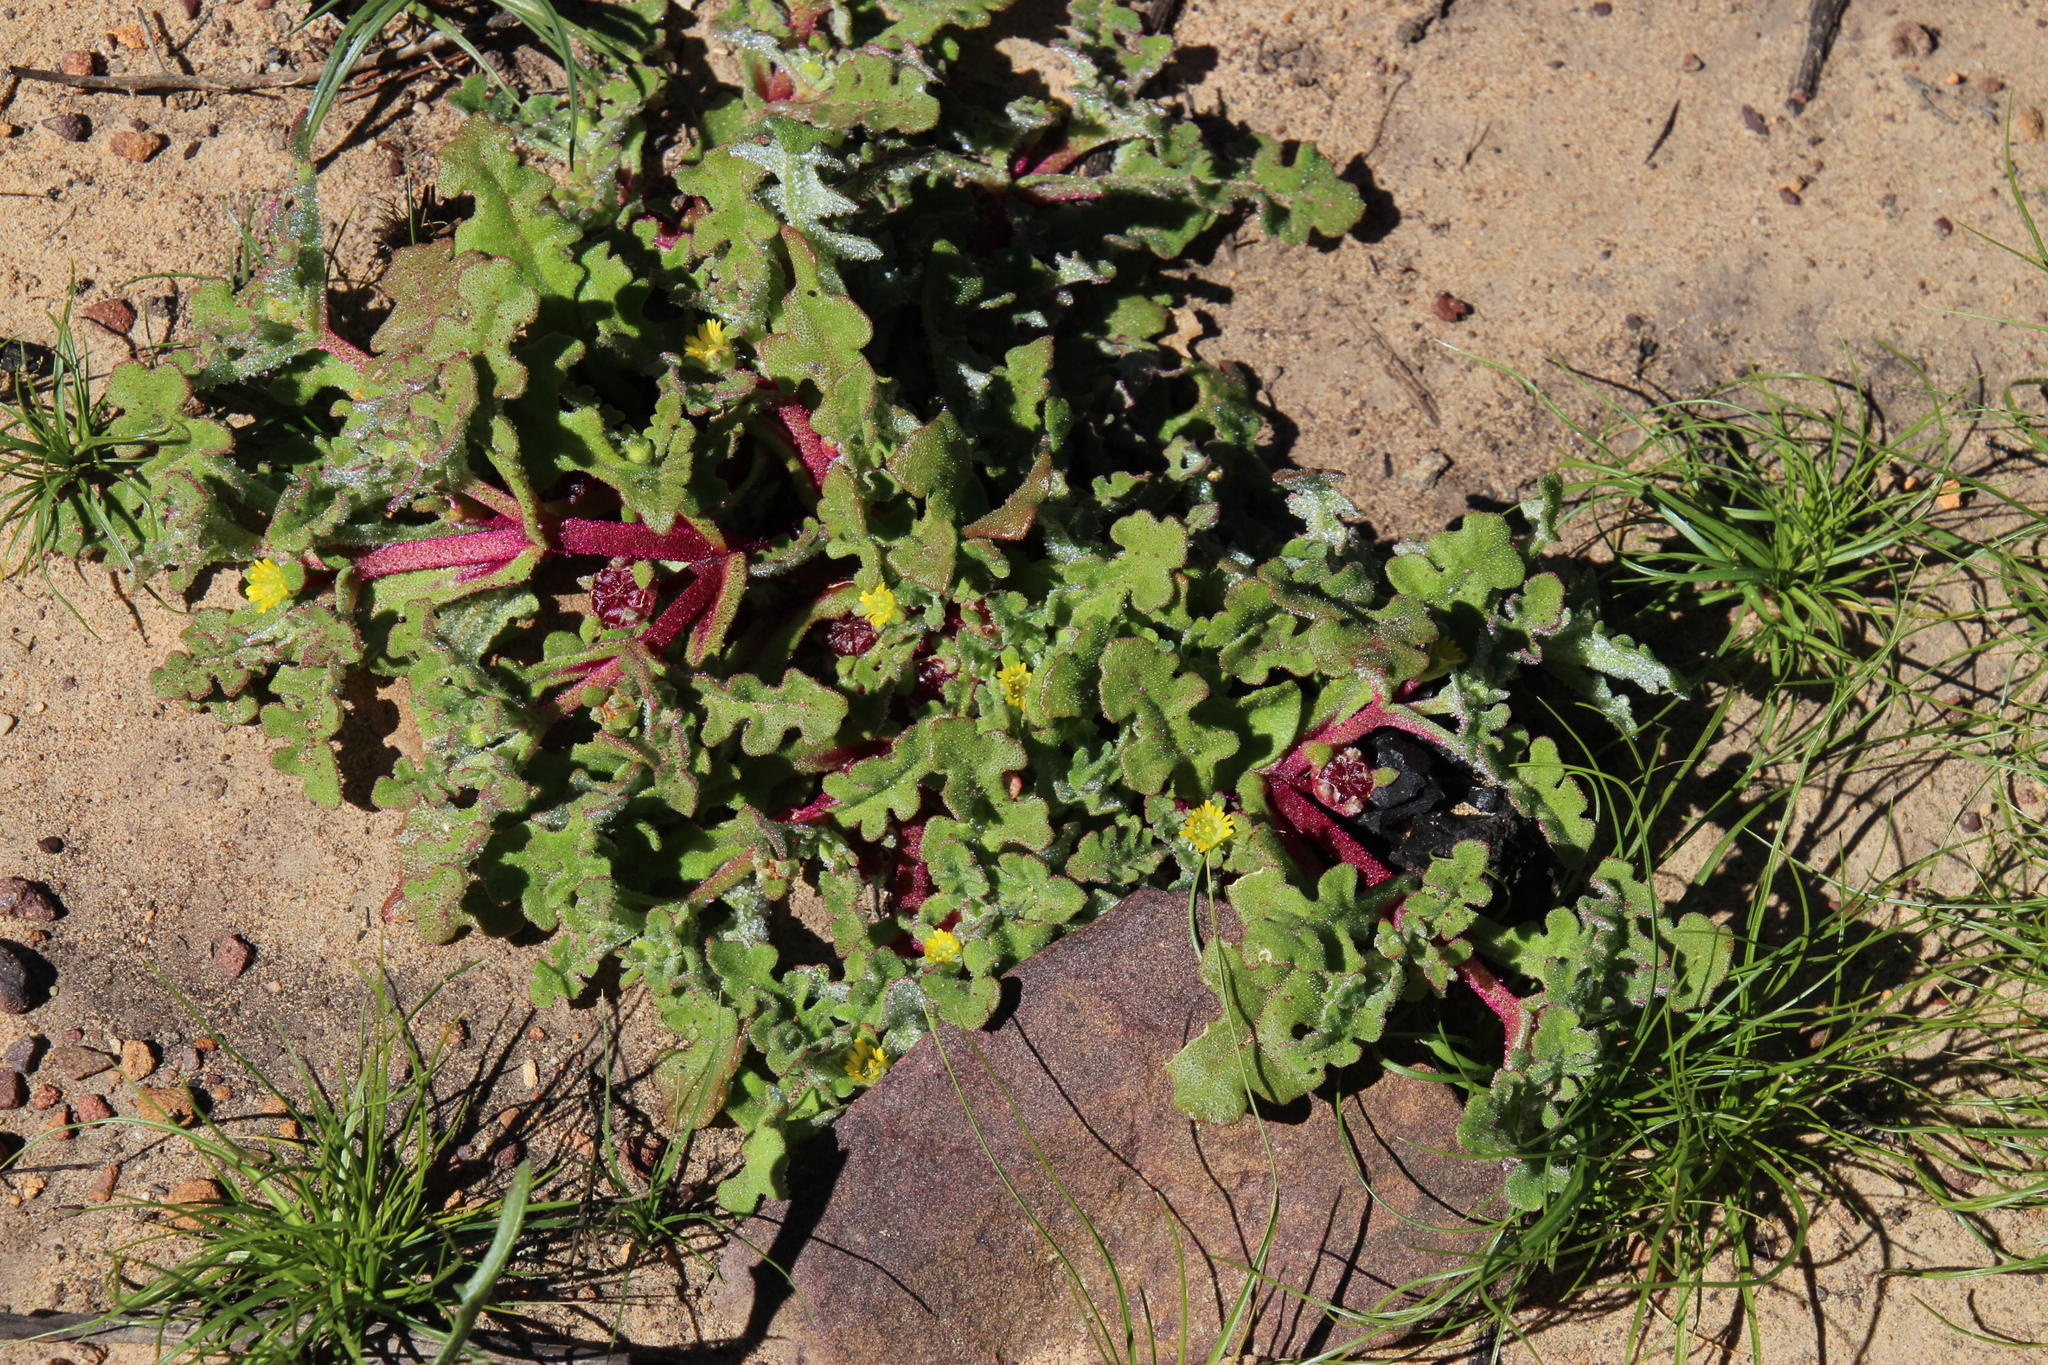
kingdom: Plantae
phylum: Tracheophyta
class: Magnoliopsida
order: Caryophyllales
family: Aizoaceae
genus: Cleretum
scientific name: Cleretum pinnatifidum
